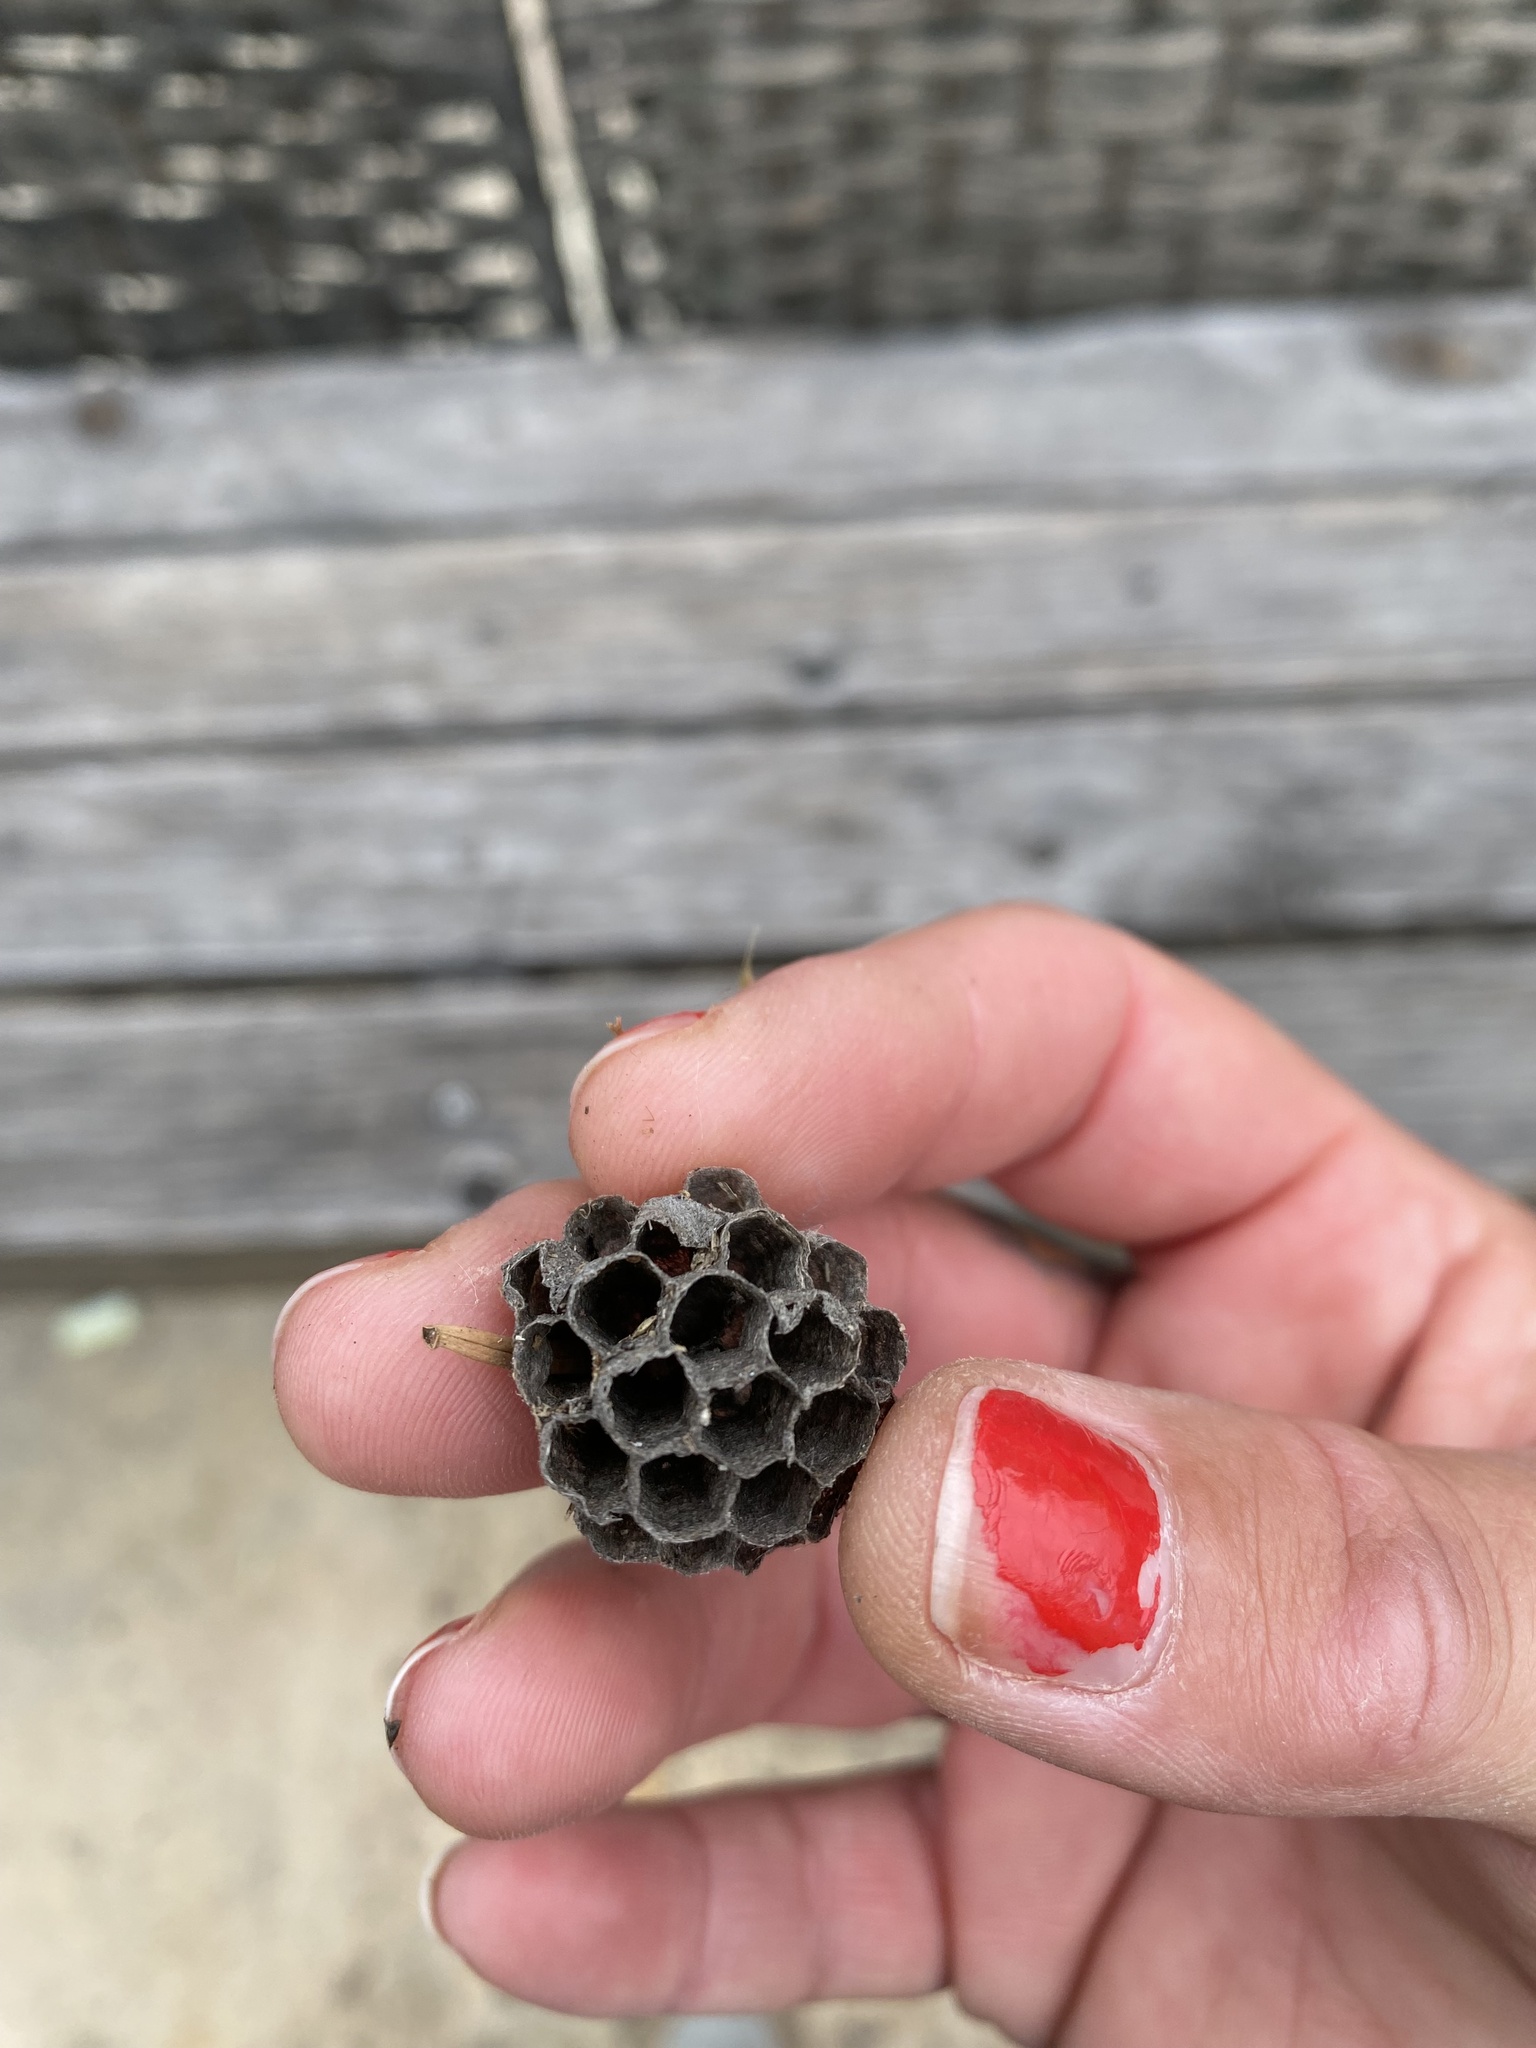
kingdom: Animalia
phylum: Arthropoda
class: Insecta
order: Hymenoptera
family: Vespidae
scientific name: Vespidae
